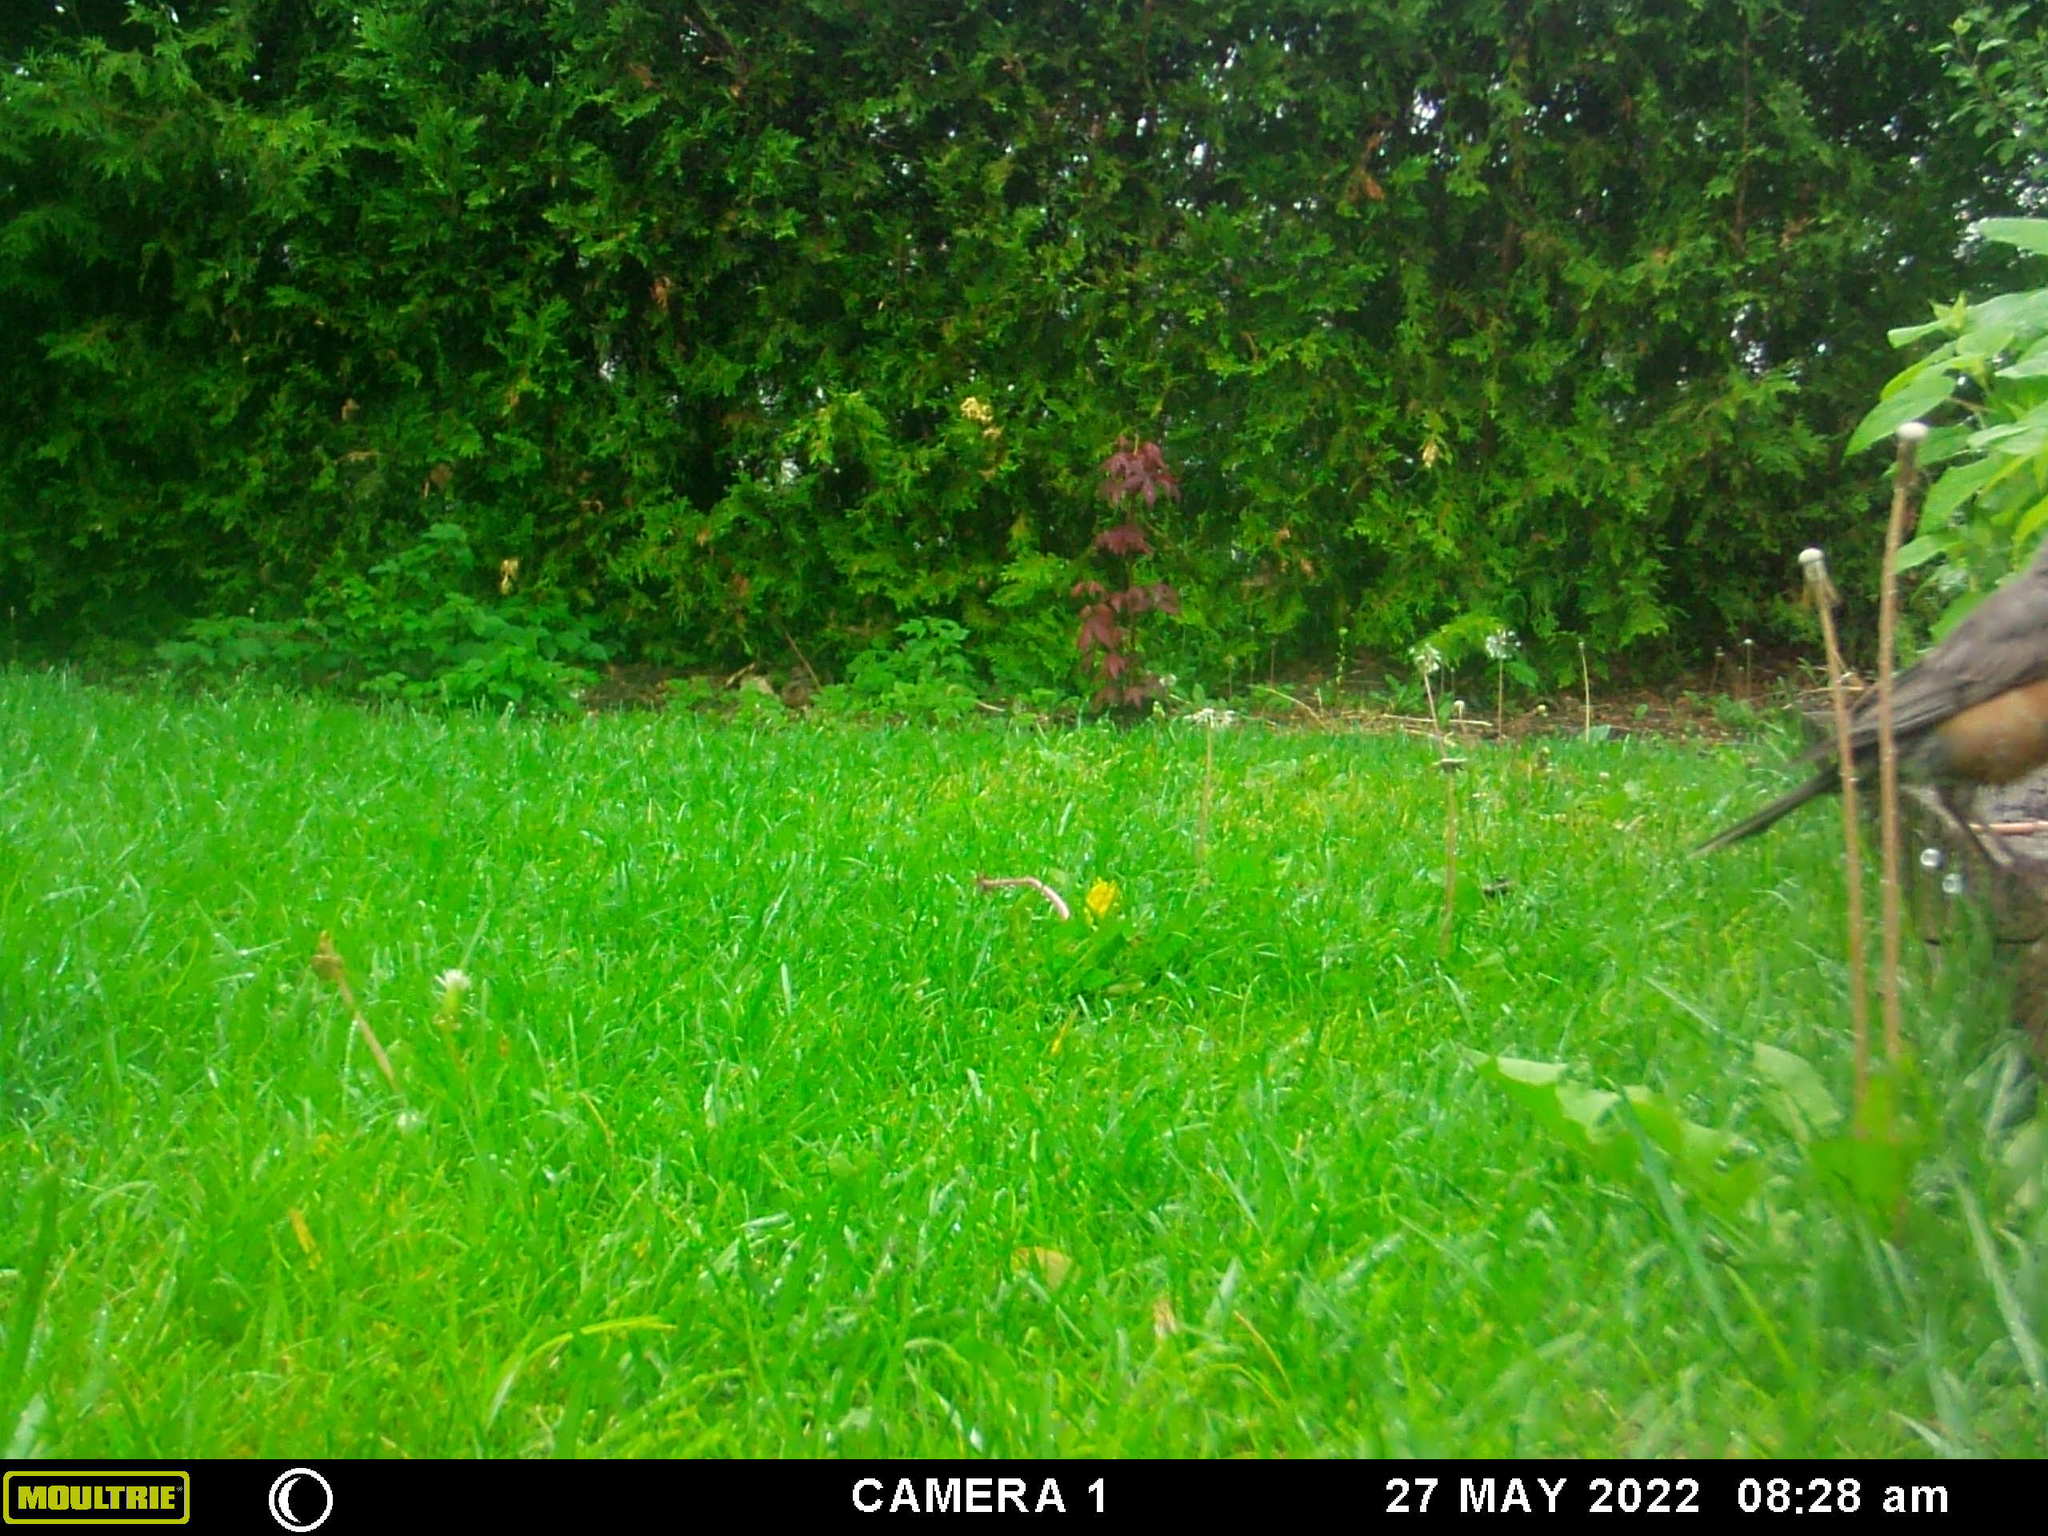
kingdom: Animalia
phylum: Chordata
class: Aves
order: Passeriformes
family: Turdidae
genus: Turdus
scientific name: Turdus migratorius
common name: American robin
